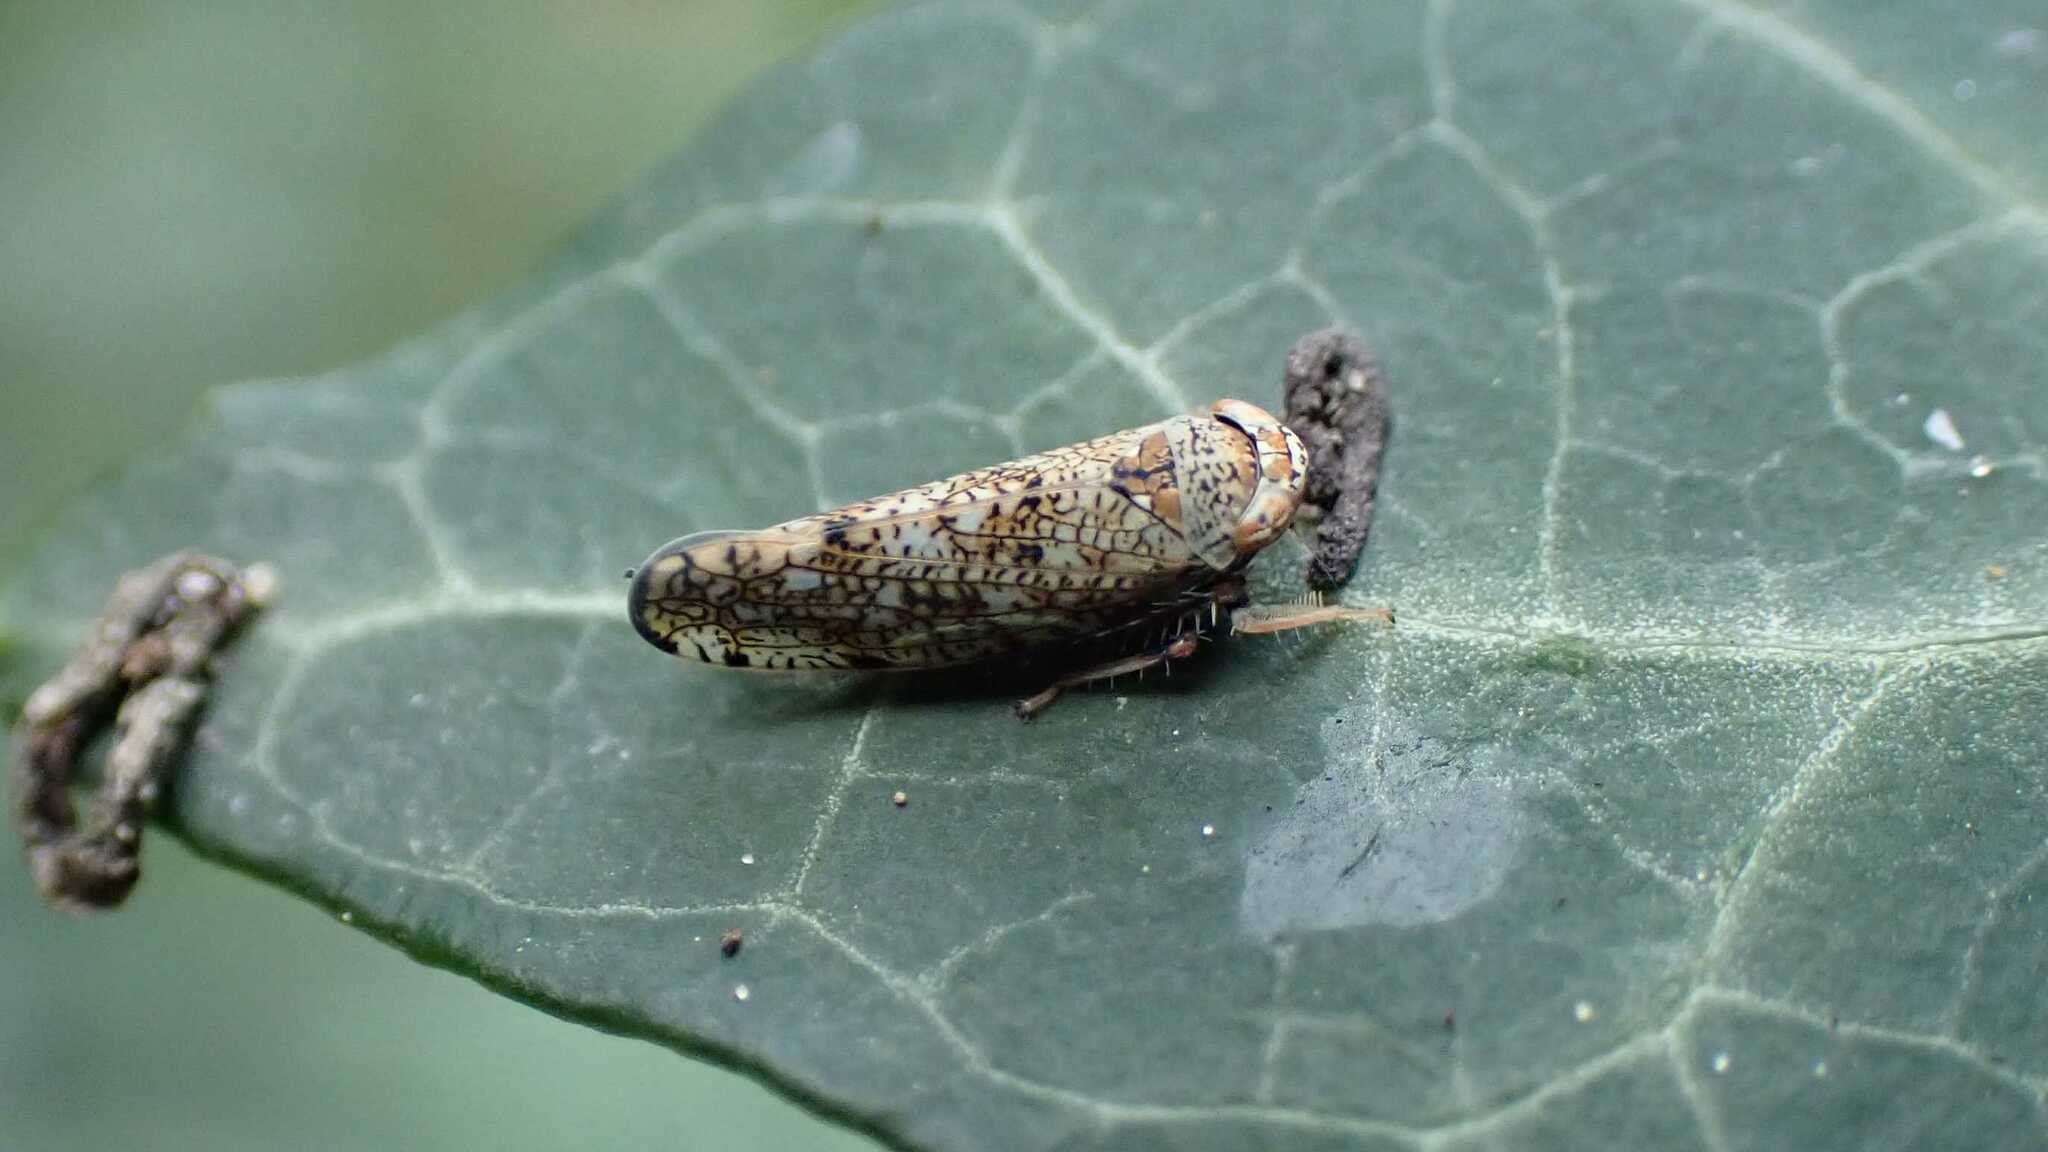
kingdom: Animalia
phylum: Arthropoda
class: Insecta
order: Hemiptera
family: Cicadellidae
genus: Orientus
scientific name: Orientus ishidae
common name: Japanese leafhopper
